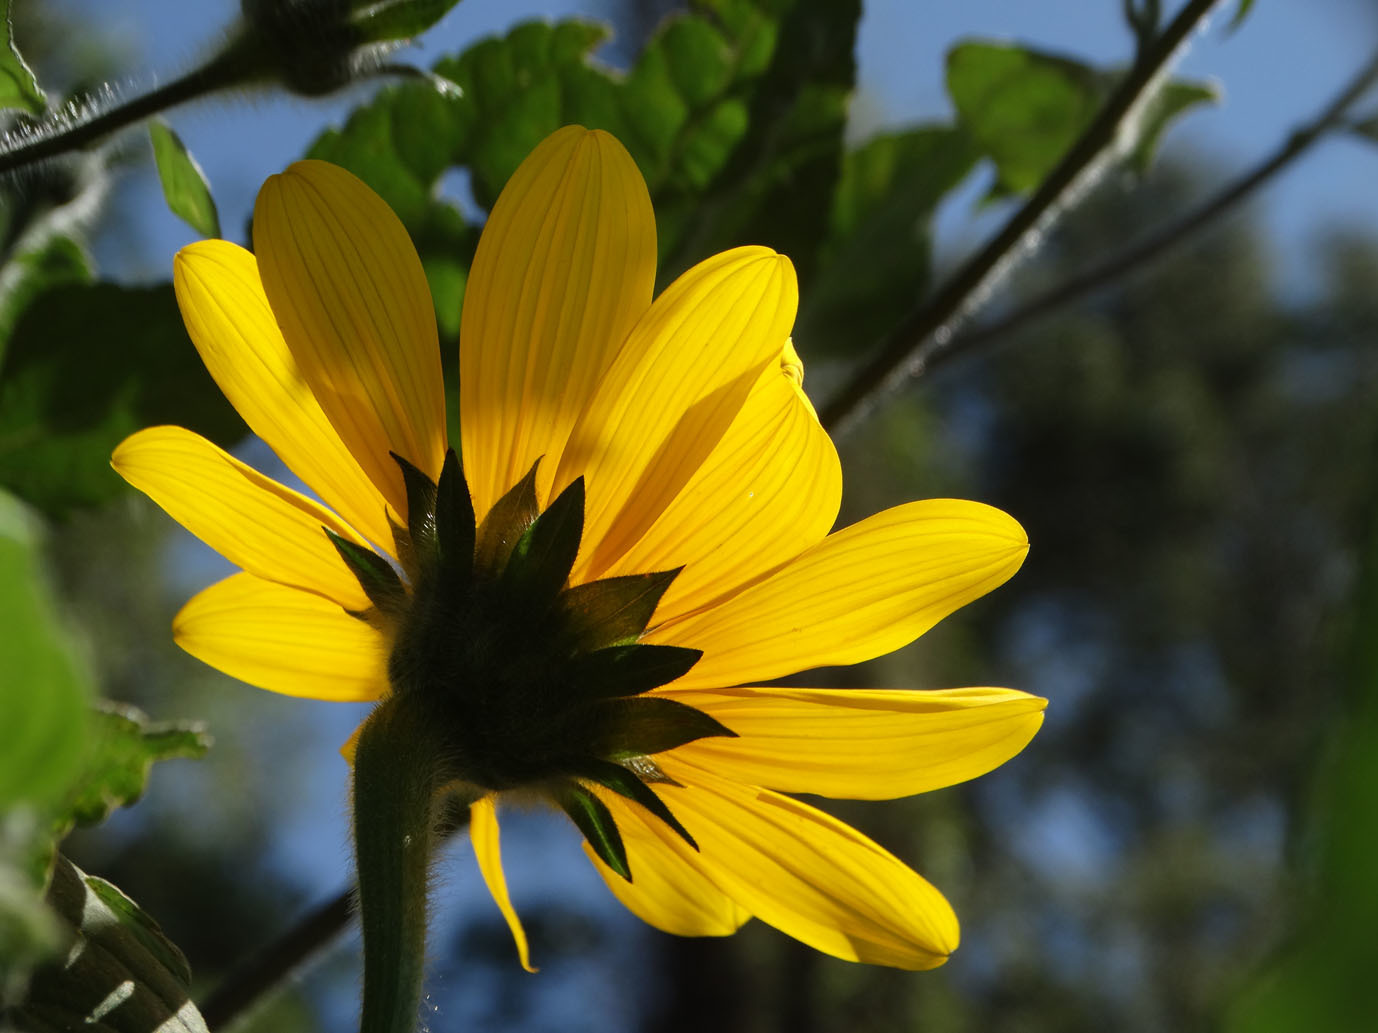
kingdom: Plantae
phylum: Tracheophyta
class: Magnoliopsida
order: Asterales
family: Asteraceae
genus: Tithonia
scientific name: Tithonia tubaeformis
